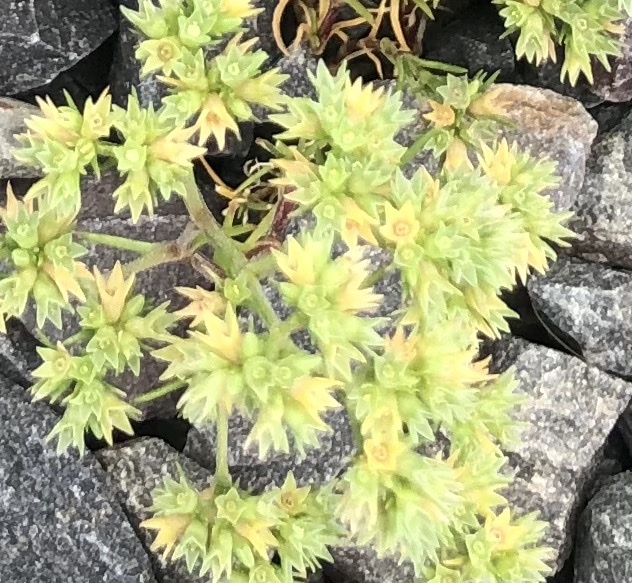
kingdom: Plantae
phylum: Tracheophyta
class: Magnoliopsida
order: Caryophyllales
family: Caryophyllaceae
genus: Scleranthus
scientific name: Scleranthus annuus
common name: Annual knawel
